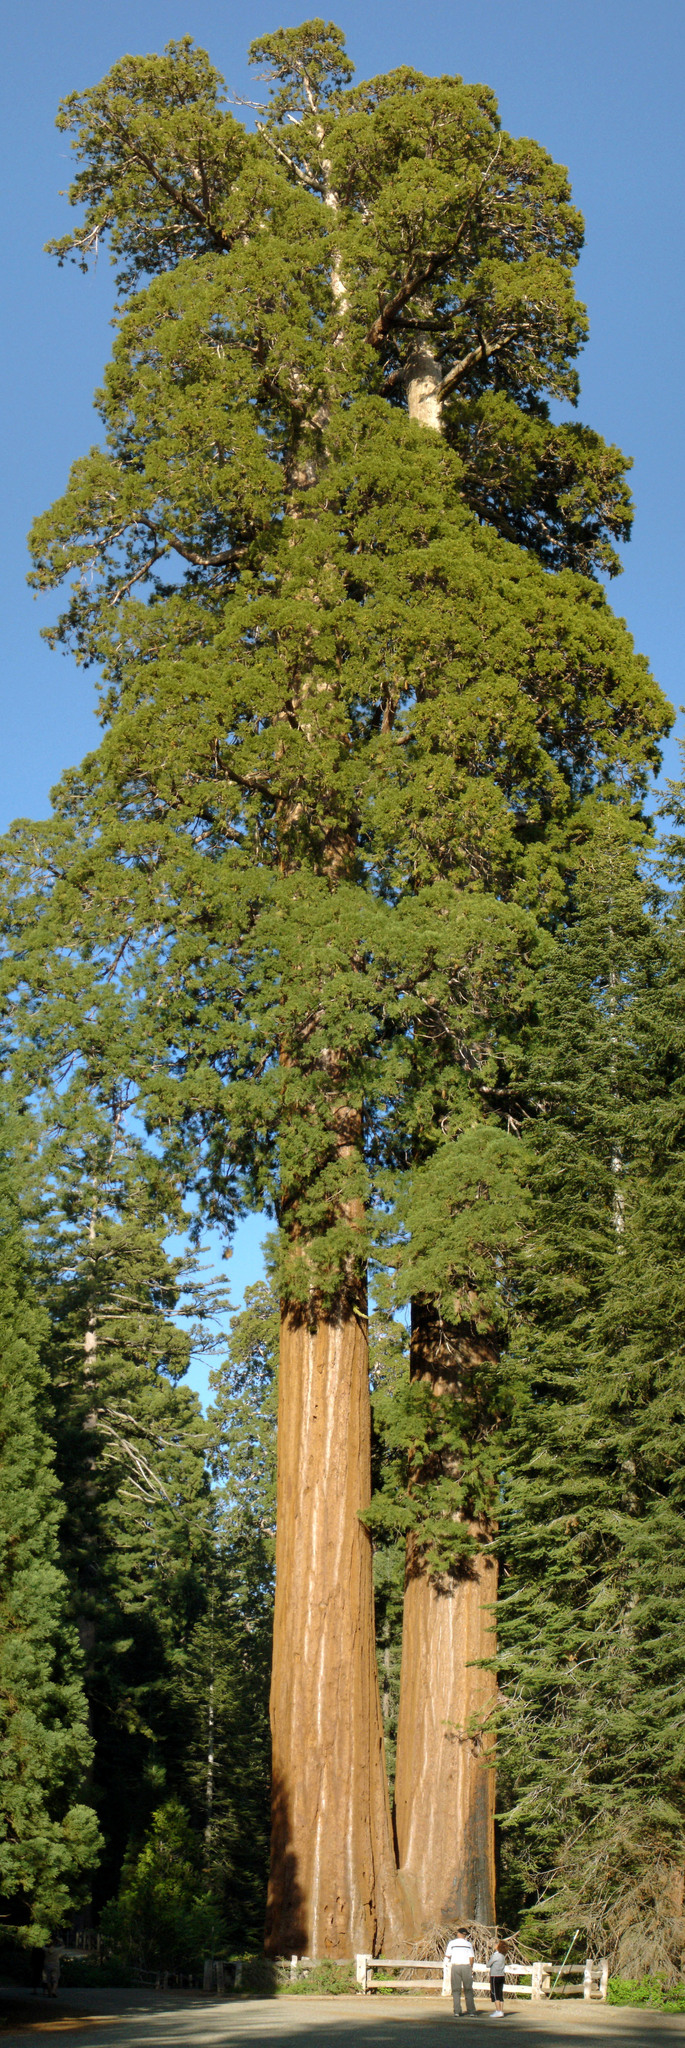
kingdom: Plantae
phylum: Tracheophyta
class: Pinopsida
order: Pinales
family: Cupressaceae
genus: Sequoiadendron
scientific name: Sequoiadendron giganteum
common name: Wellingtonia
